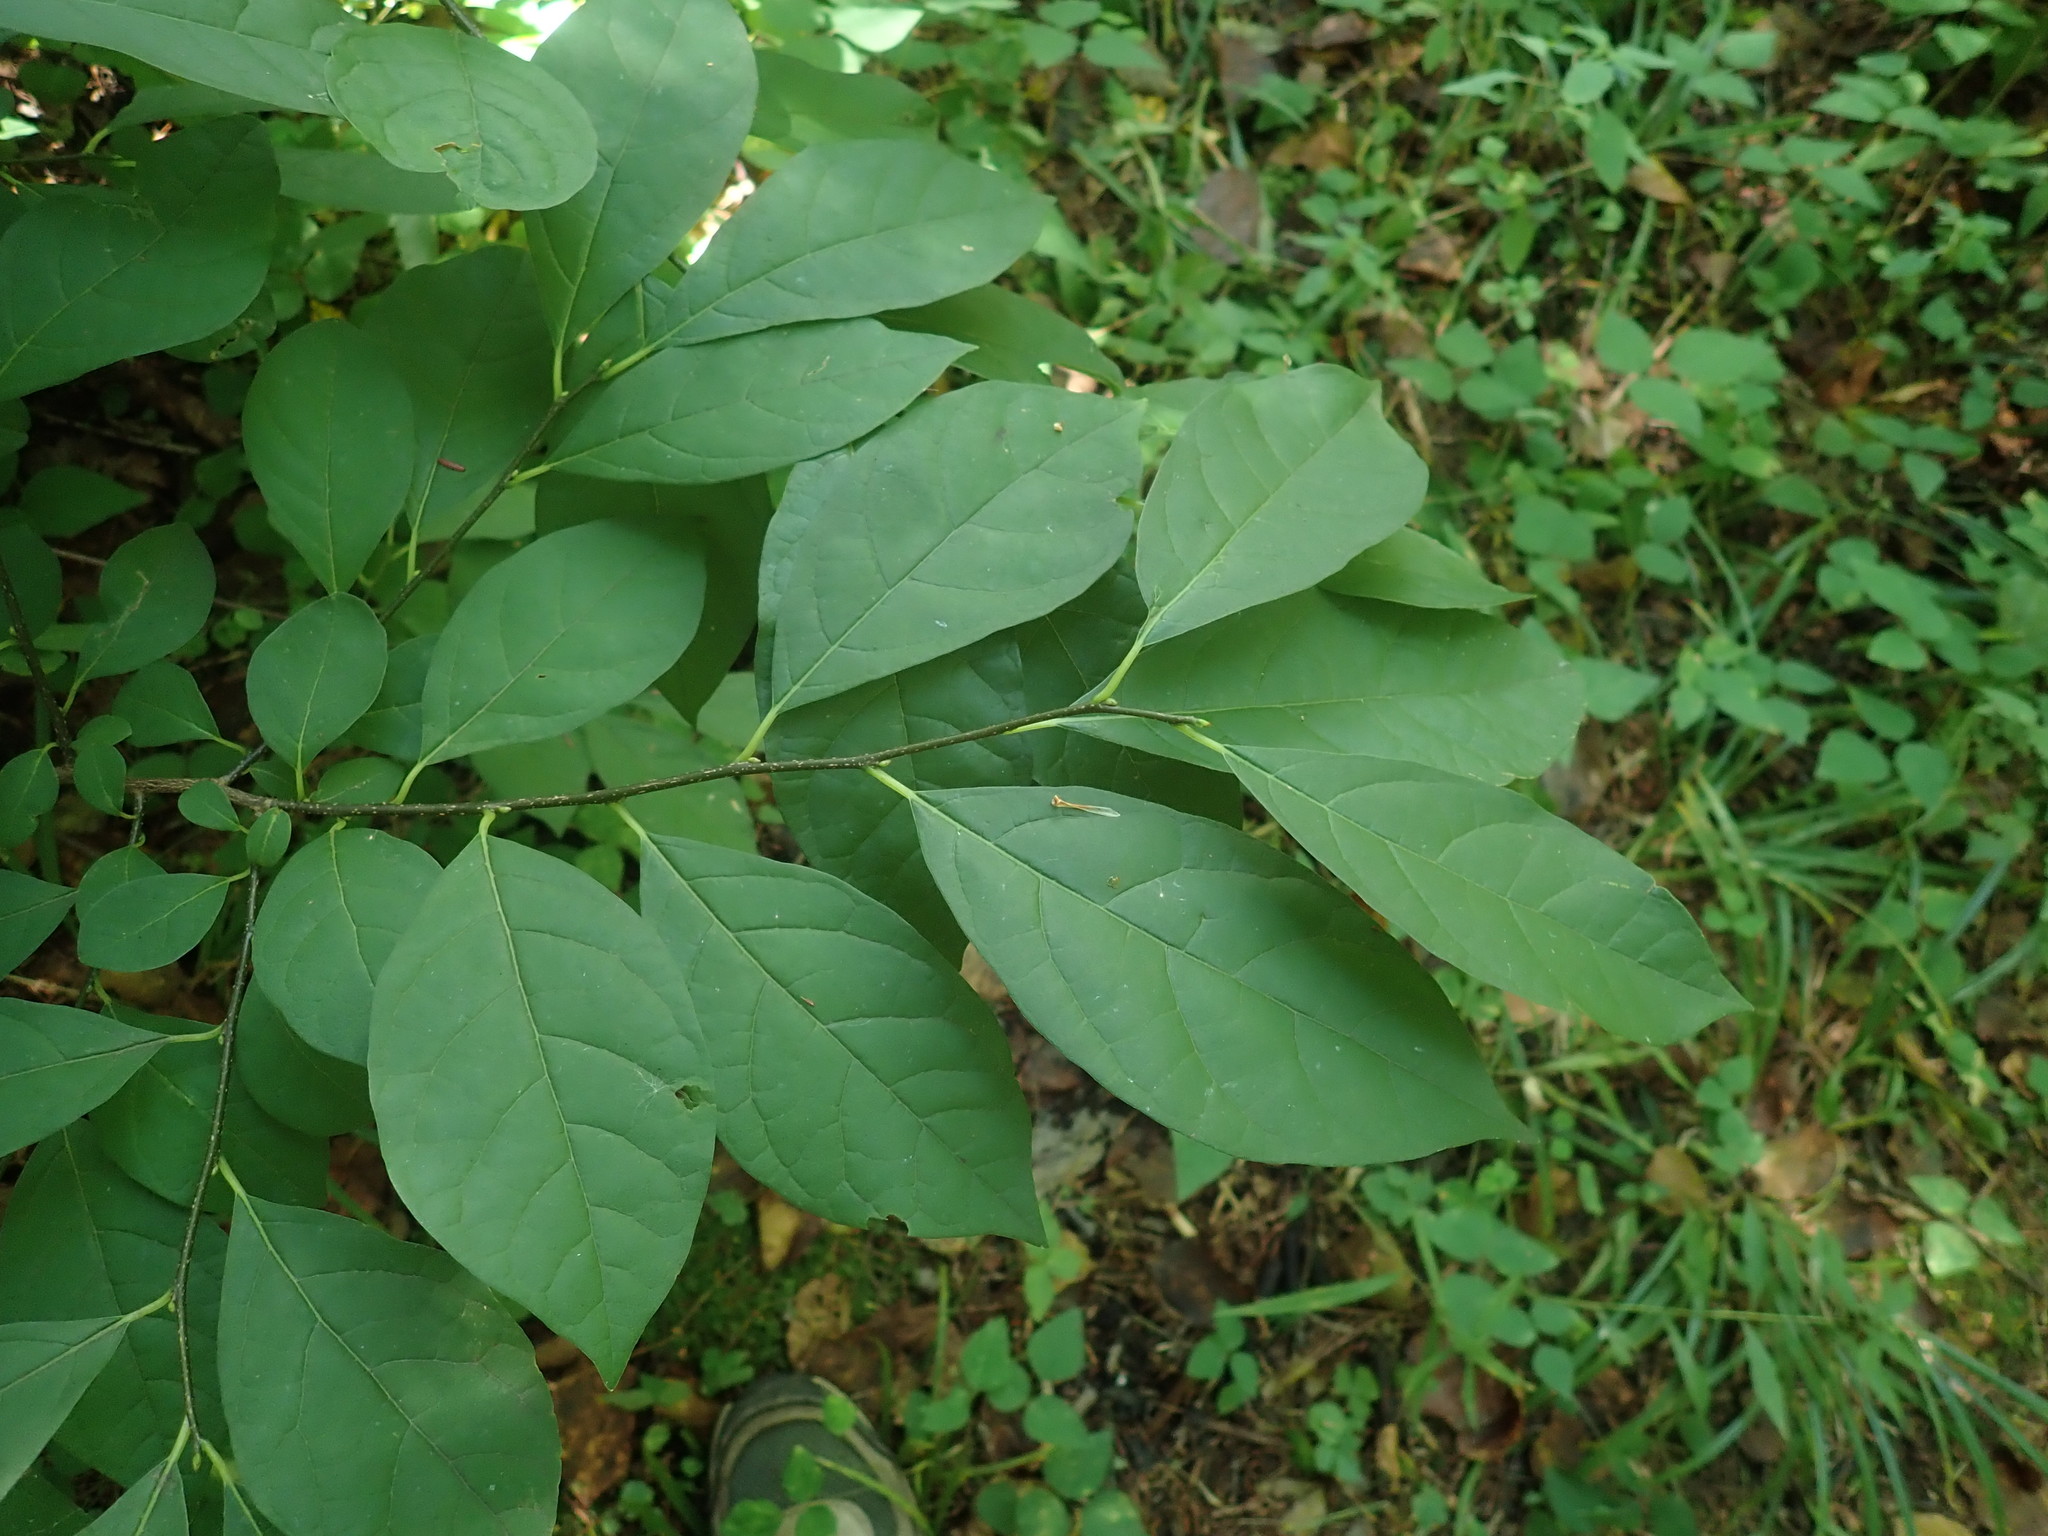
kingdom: Plantae
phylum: Tracheophyta
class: Magnoliopsida
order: Laurales
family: Lauraceae
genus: Lindera
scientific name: Lindera benzoin
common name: Spicebush
